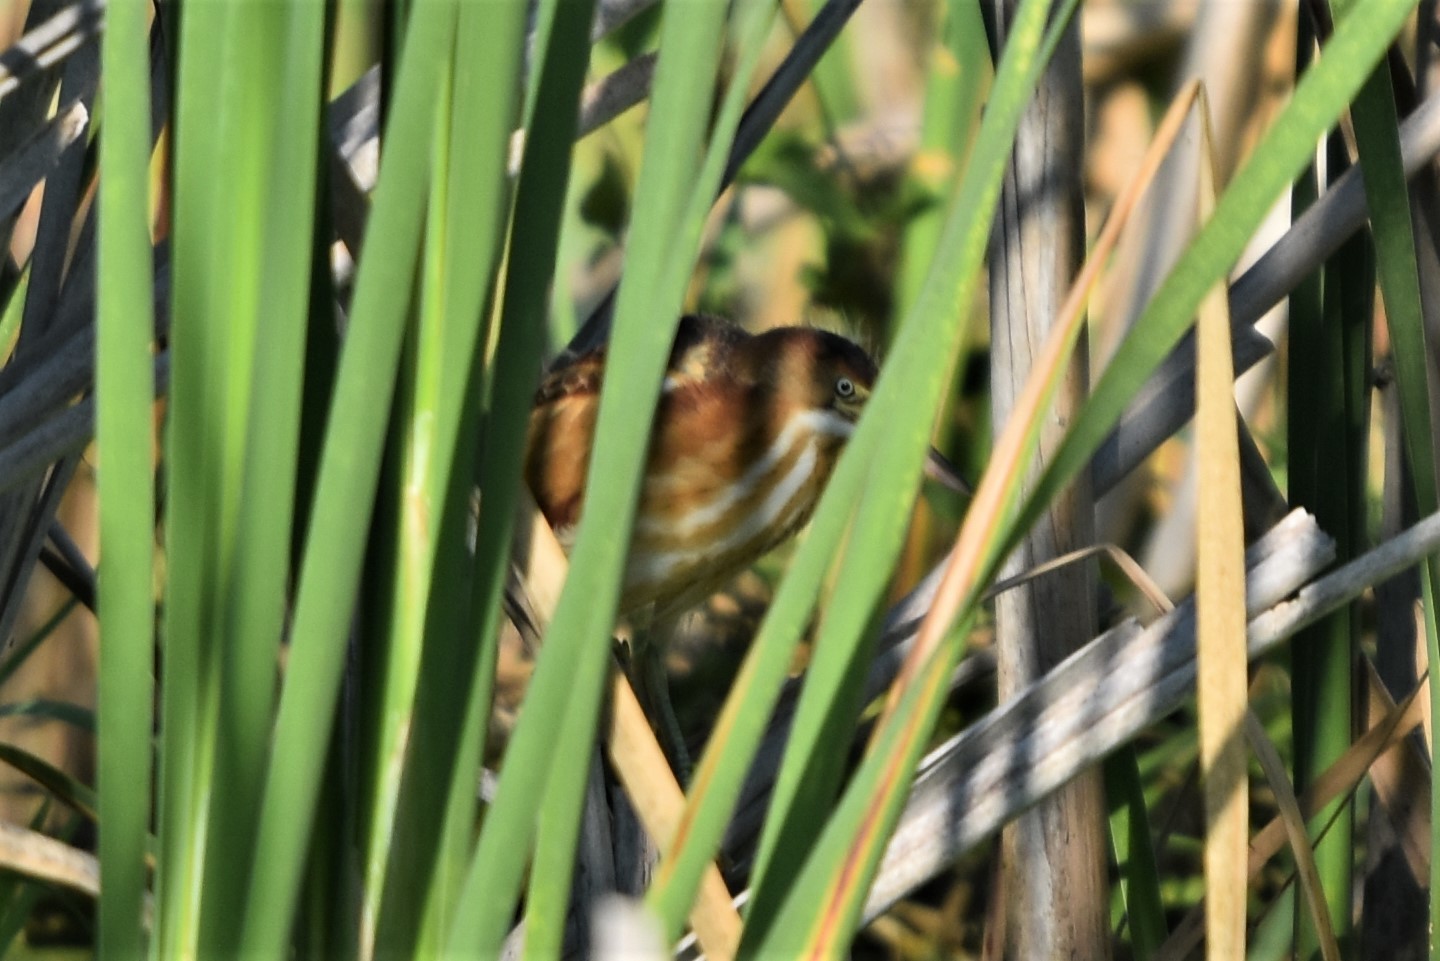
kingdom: Animalia
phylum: Chordata
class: Aves
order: Pelecaniformes
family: Ardeidae
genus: Ixobrychus
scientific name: Ixobrychus exilis
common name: Least bittern
